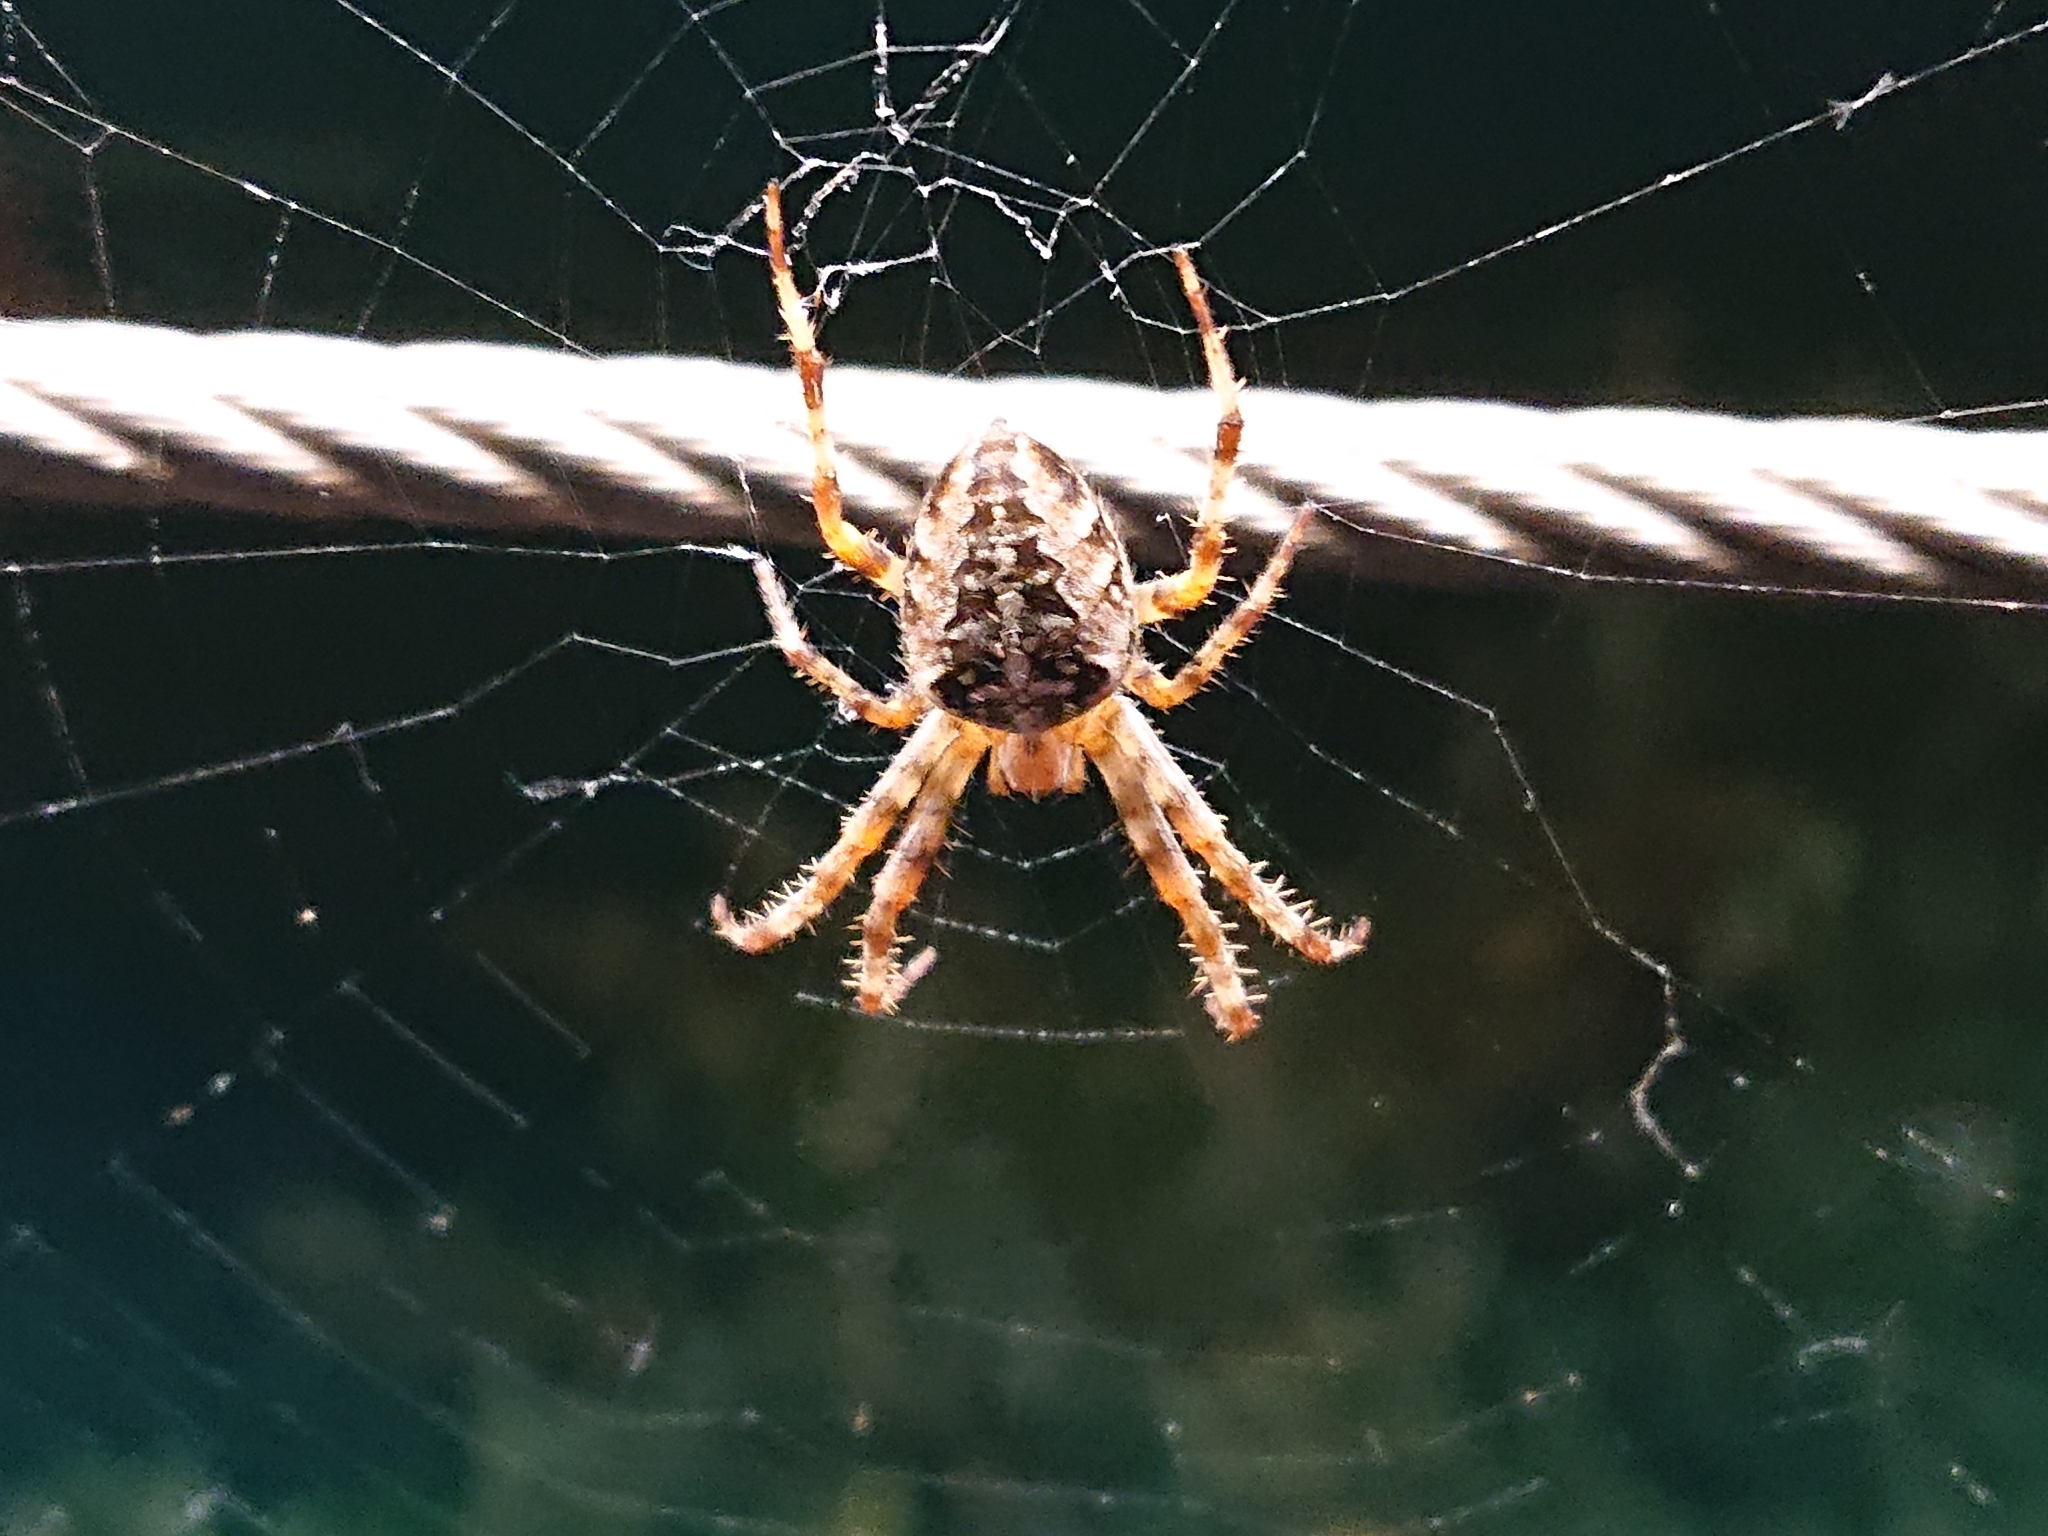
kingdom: Animalia
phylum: Arthropoda
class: Arachnida
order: Araneae
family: Araneidae
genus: Araneus
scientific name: Araneus diadematus
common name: Cross orbweaver
